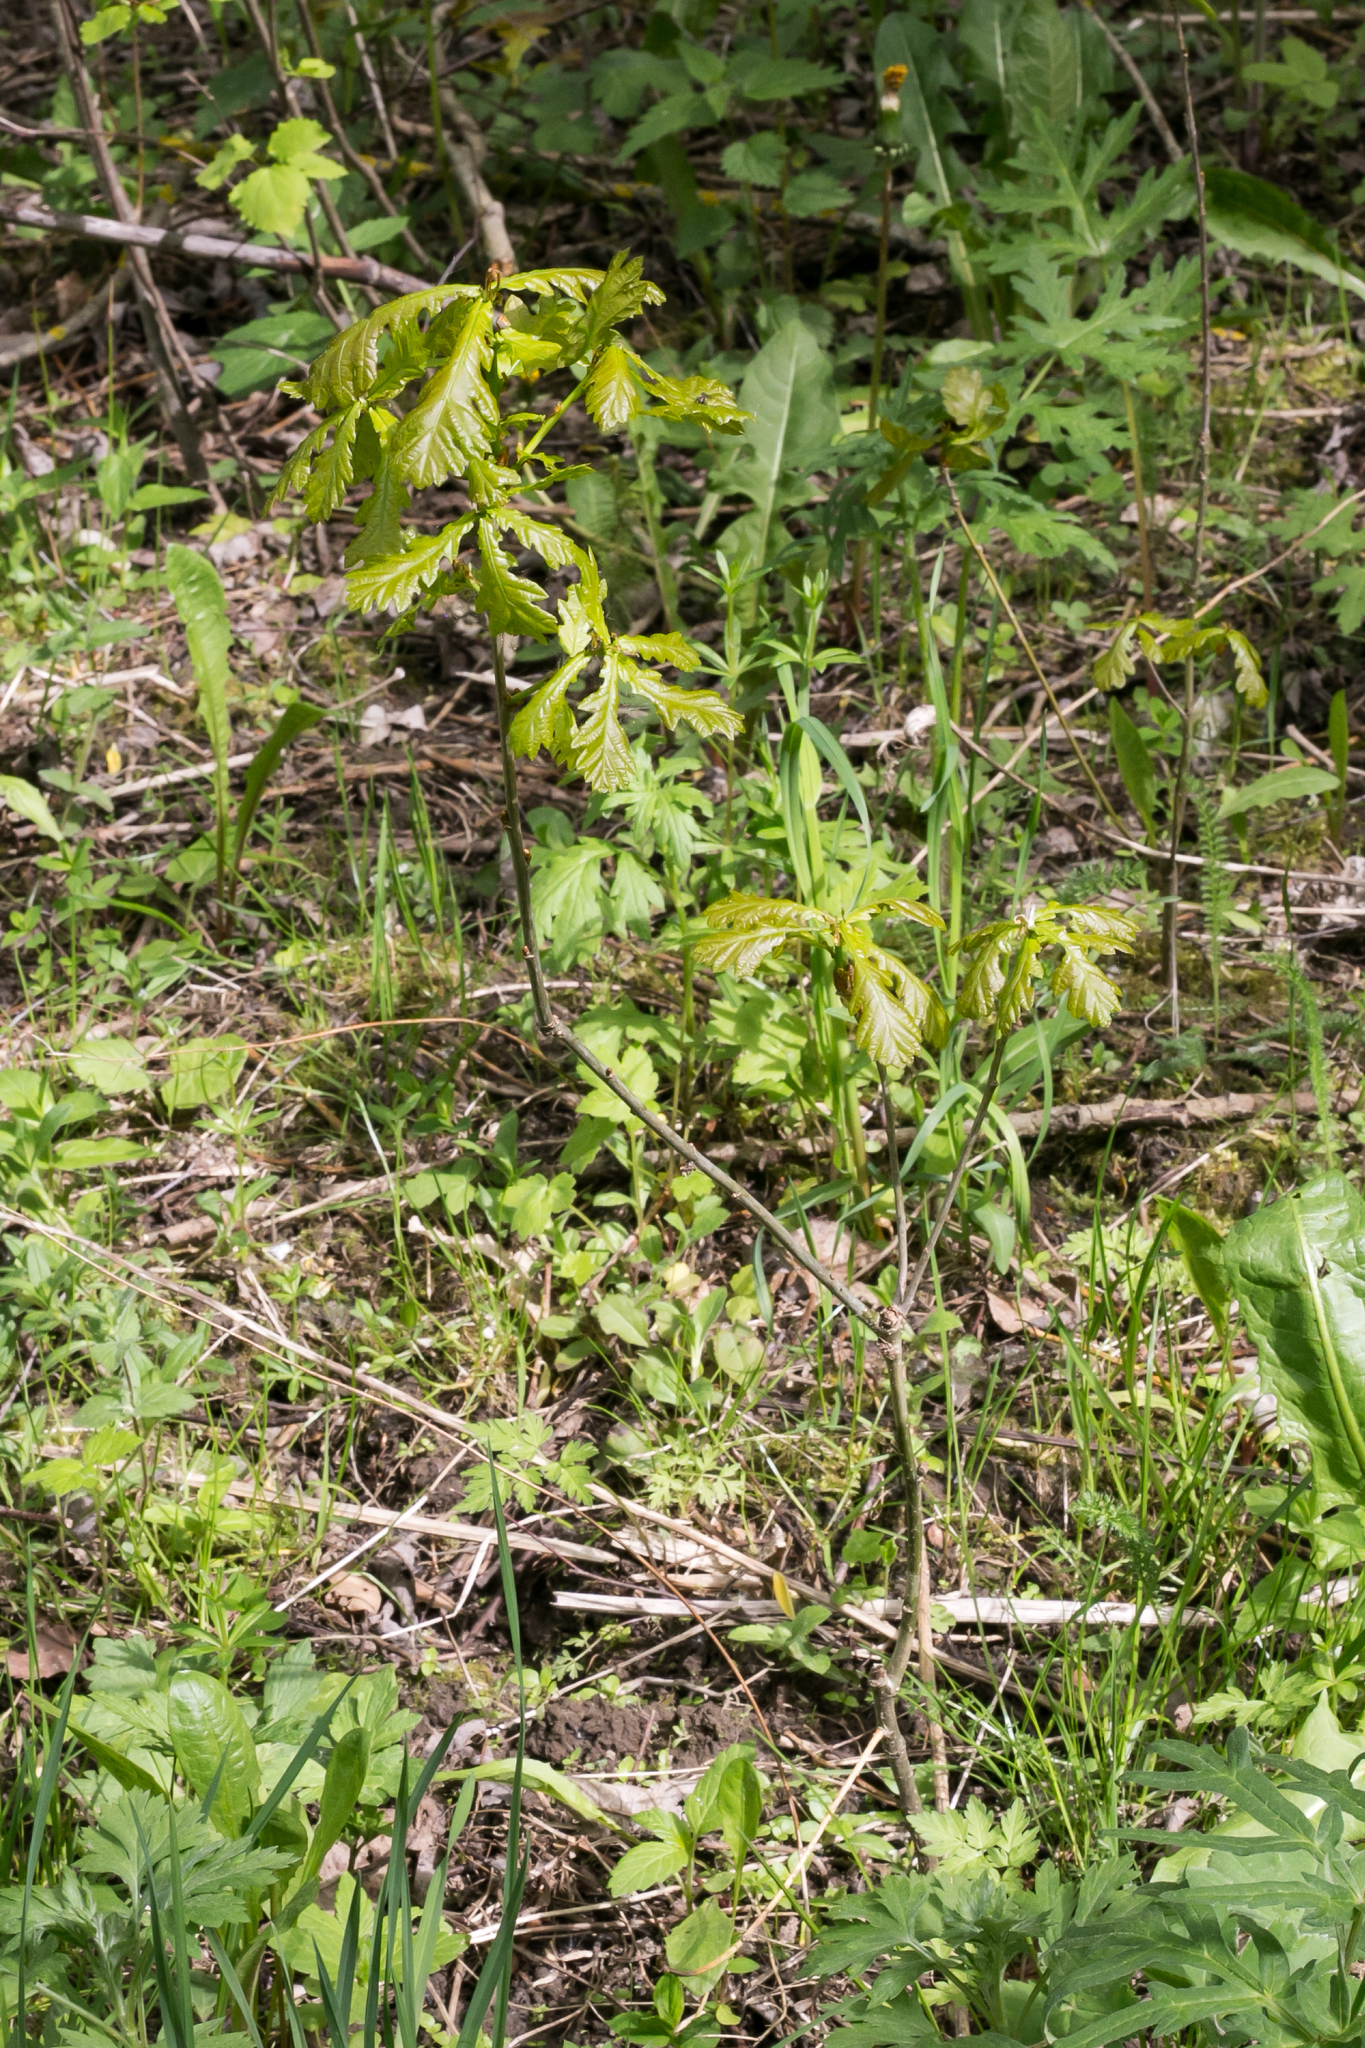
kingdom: Plantae
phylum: Tracheophyta
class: Magnoliopsida
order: Fagales
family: Fagaceae
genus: Quercus
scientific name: Quercus robur
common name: Pedunculate oak
